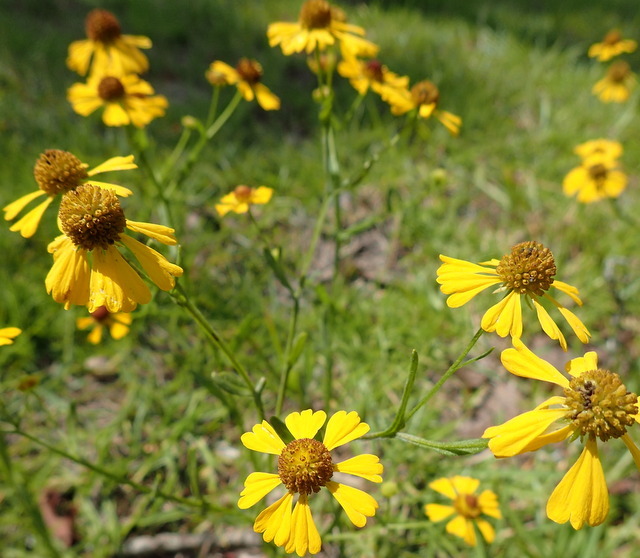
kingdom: Plantae
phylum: Tracheophyta
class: Magnoliopsida
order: Asterales
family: Asteraceae
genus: Helenium
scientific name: Helenium flexuosum
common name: Naked-flowered sneezeweed
